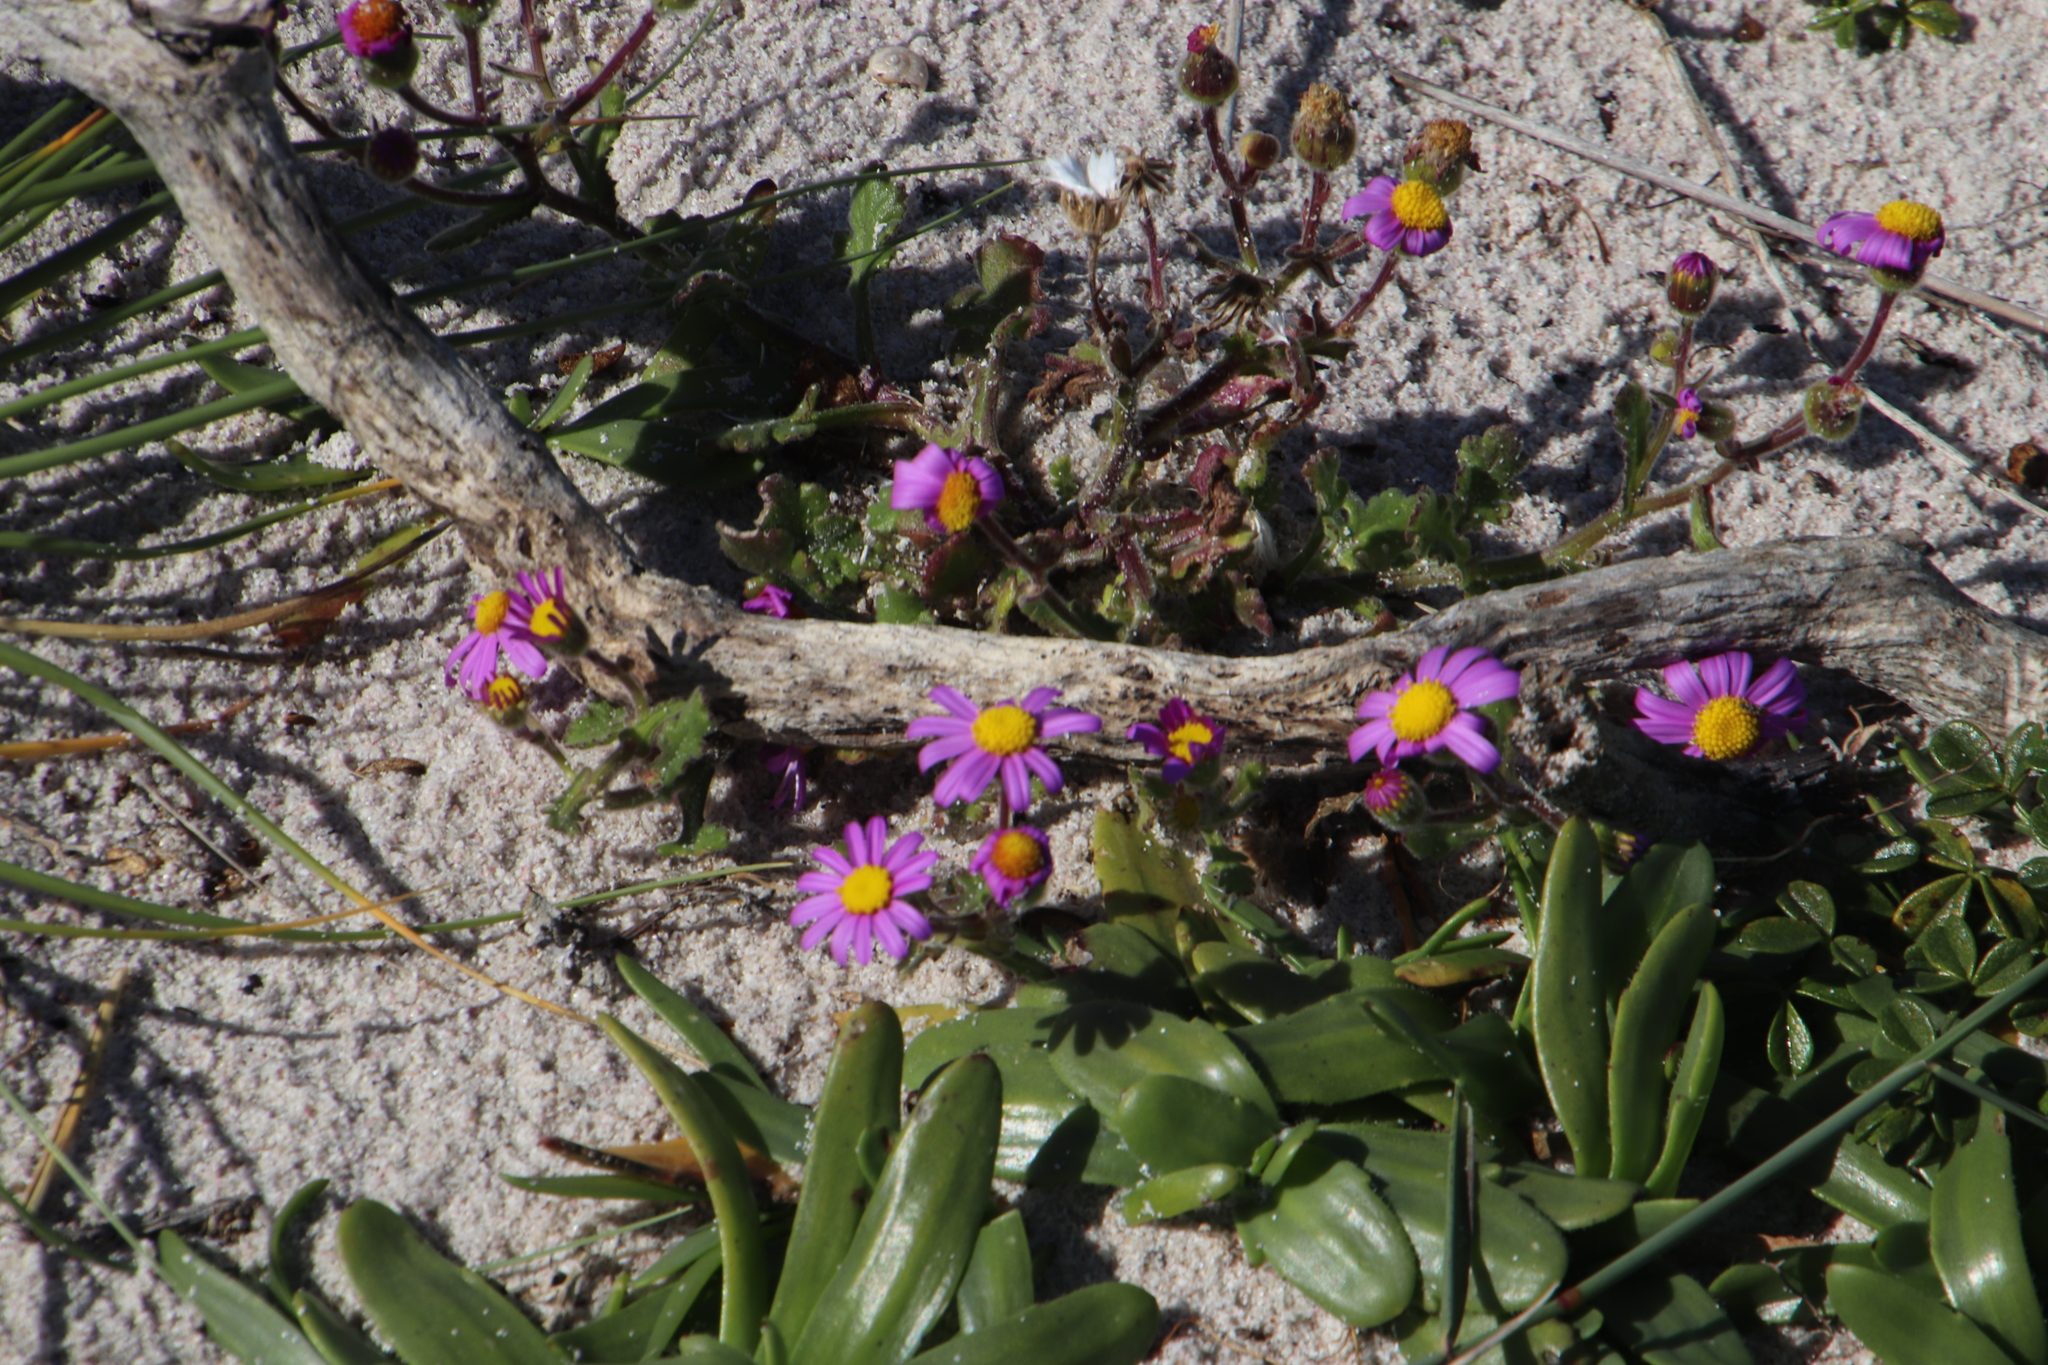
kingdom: Plantae
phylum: Tracheophyta
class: Magnoliopsida
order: Asterales
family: Asteraceae
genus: Senecio
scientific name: Senecio arenarius
